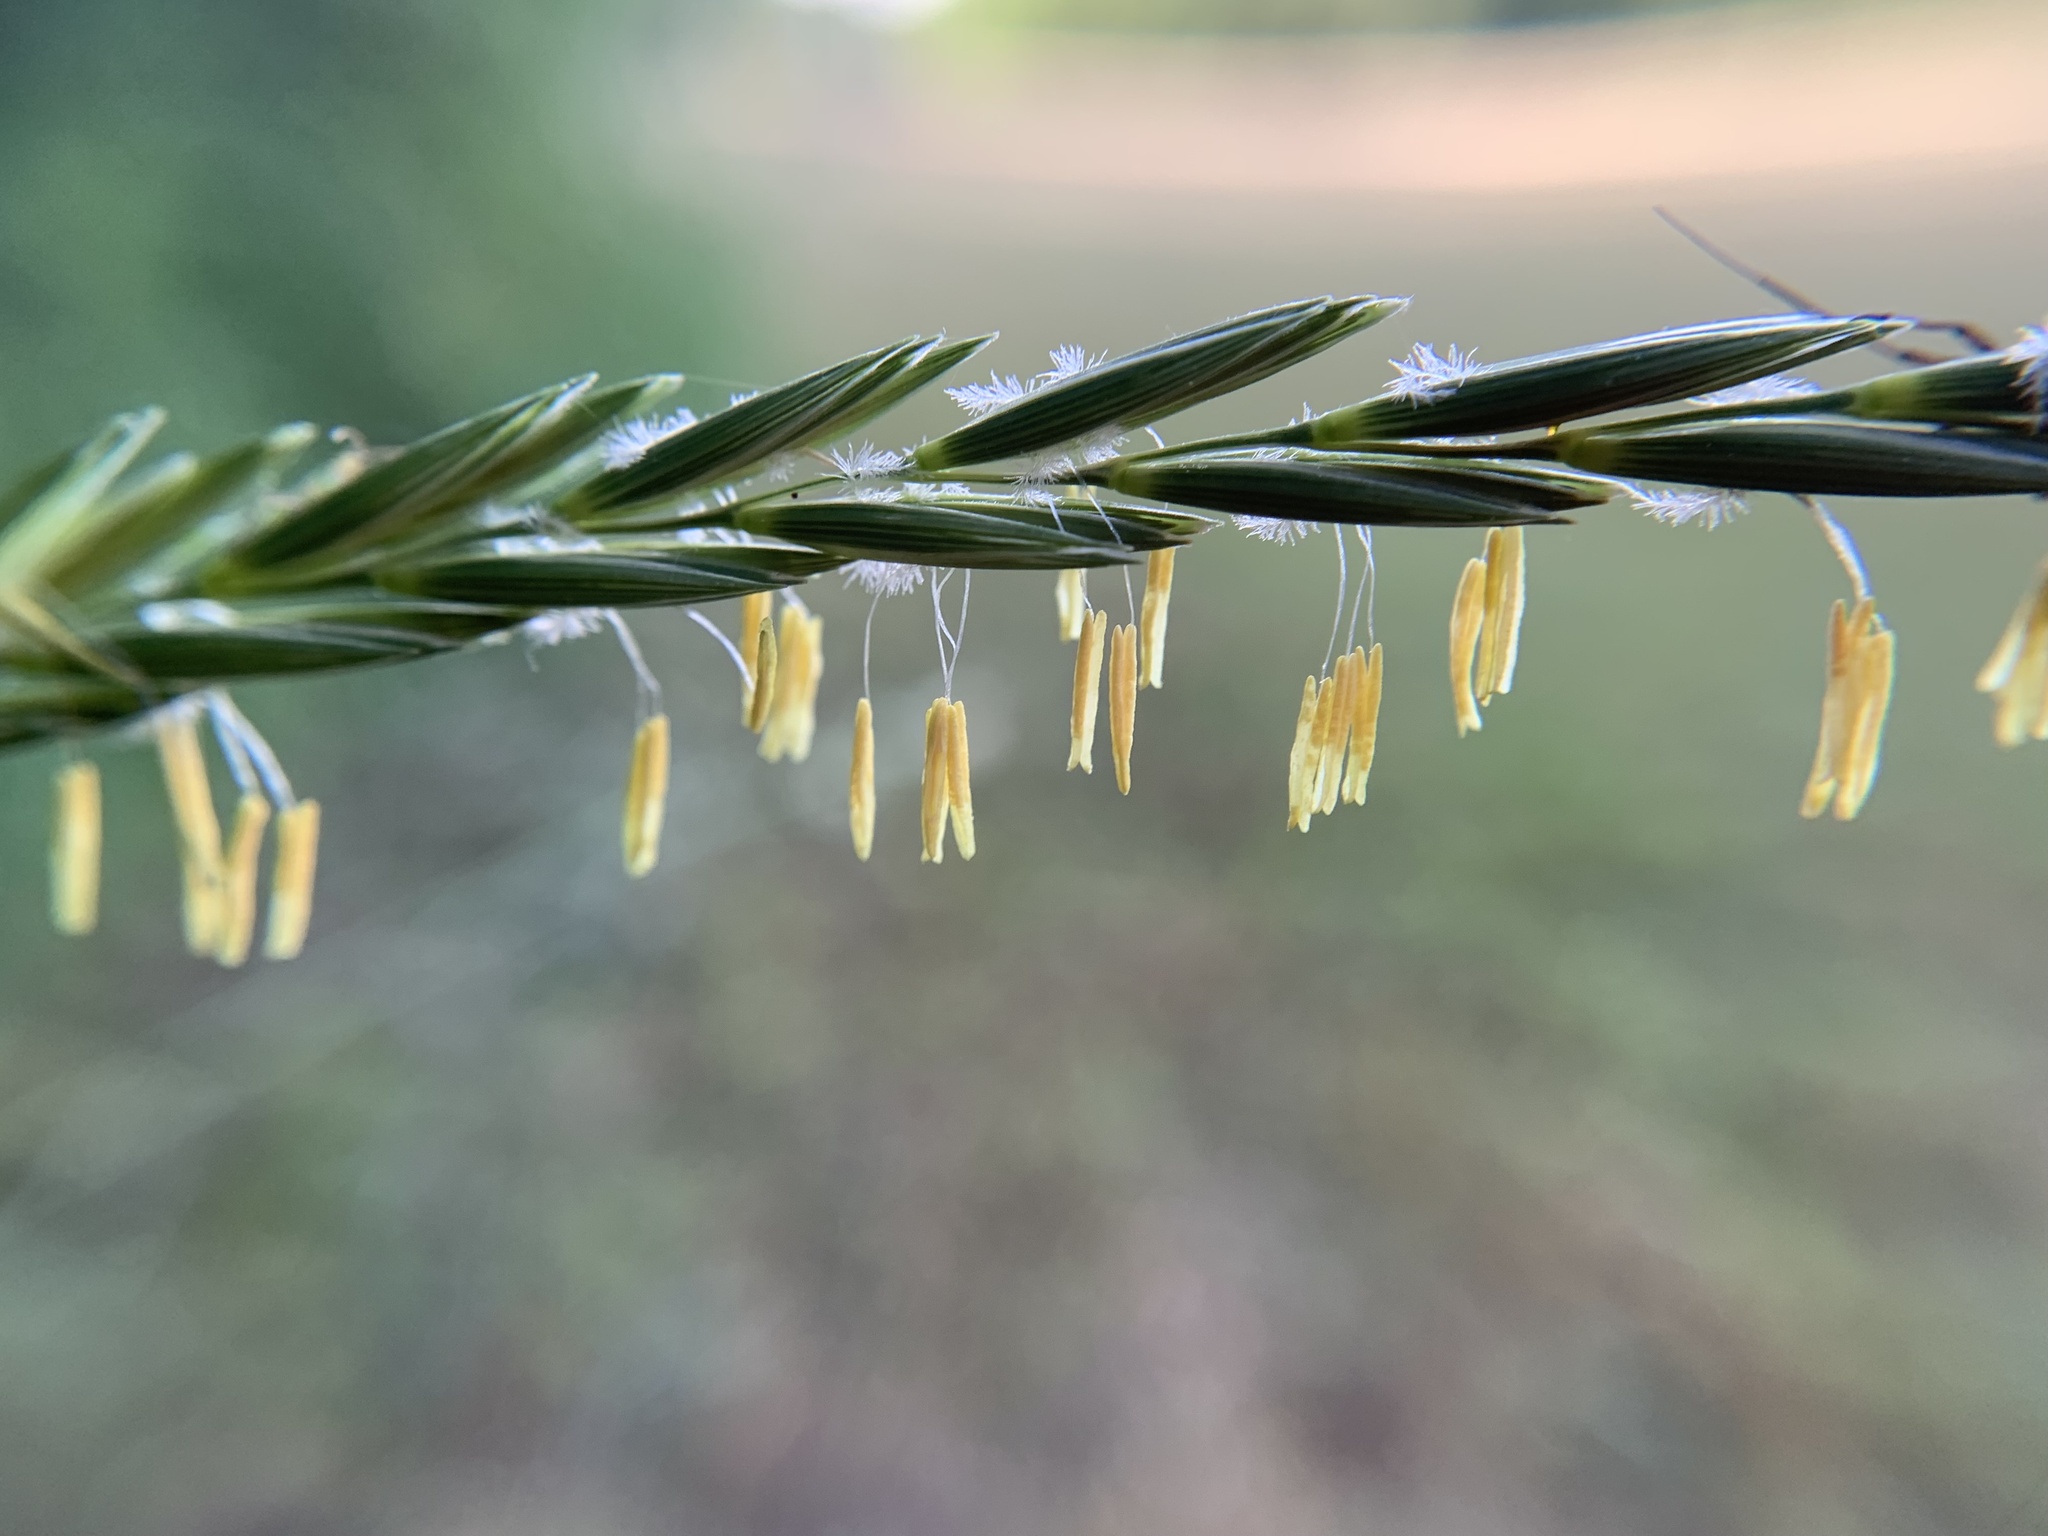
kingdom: Plantae
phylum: Tracheophyta
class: Liliopsida
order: Poales
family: Poaceae
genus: Elymus
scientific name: Elymus repens
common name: Quackgrass
